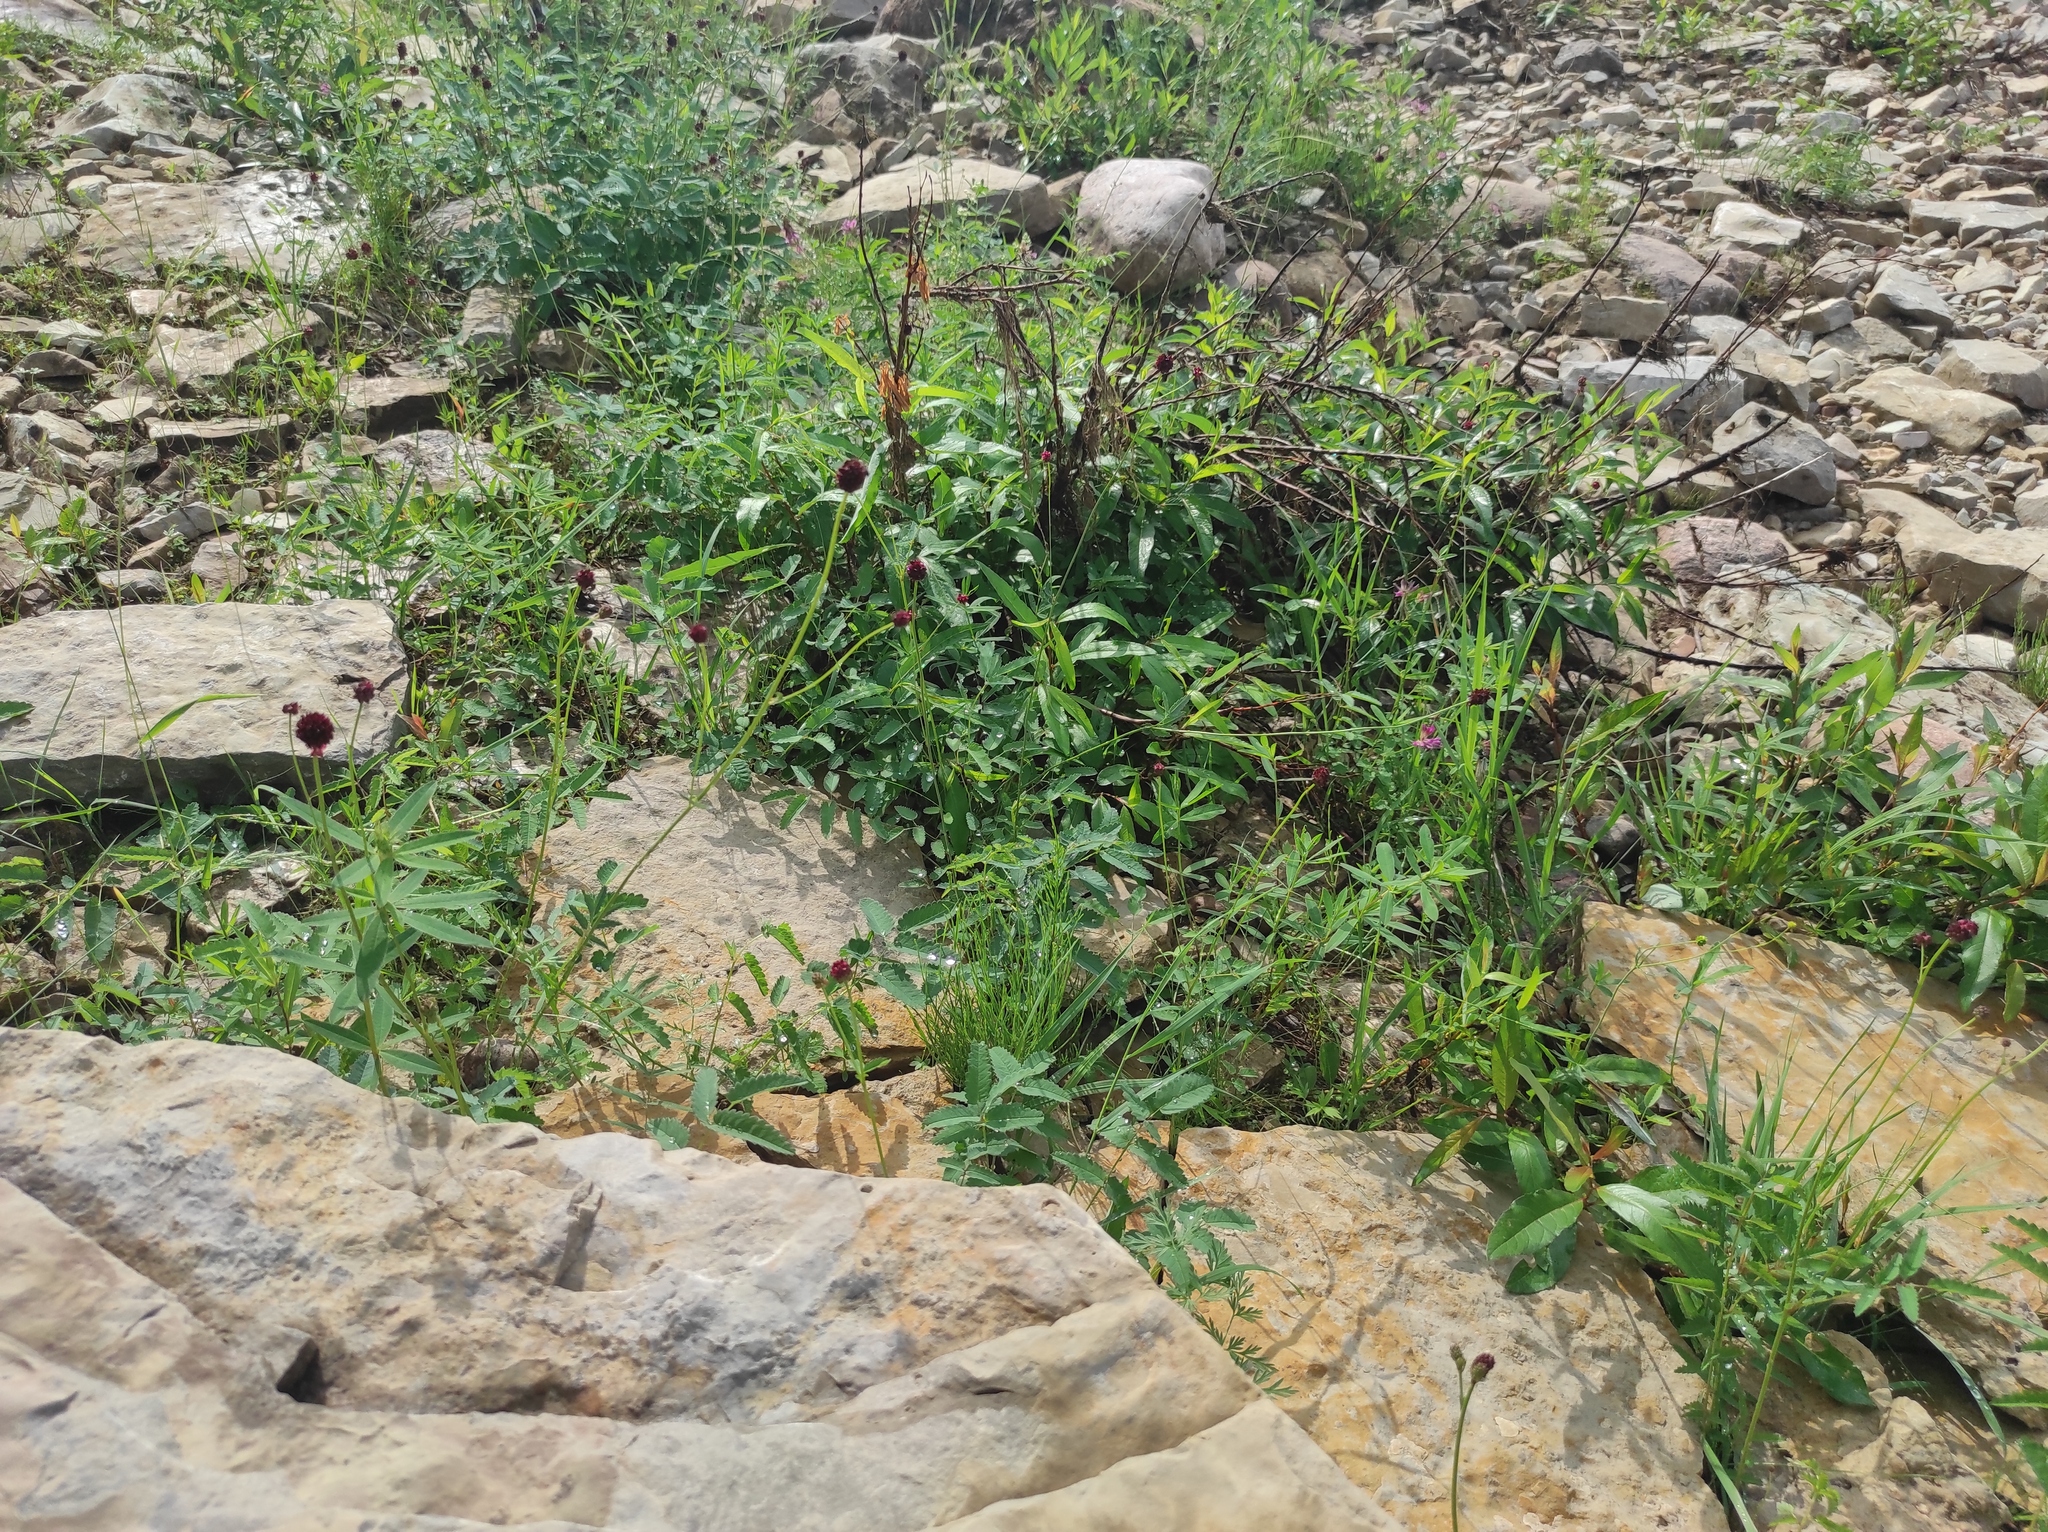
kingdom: Plantae
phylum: Tracheophyta
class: Magnoliopsida
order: Rosales
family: Rosaceae
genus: Sanguisorba
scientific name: Sanguisorba officinalis
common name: Great burnet
